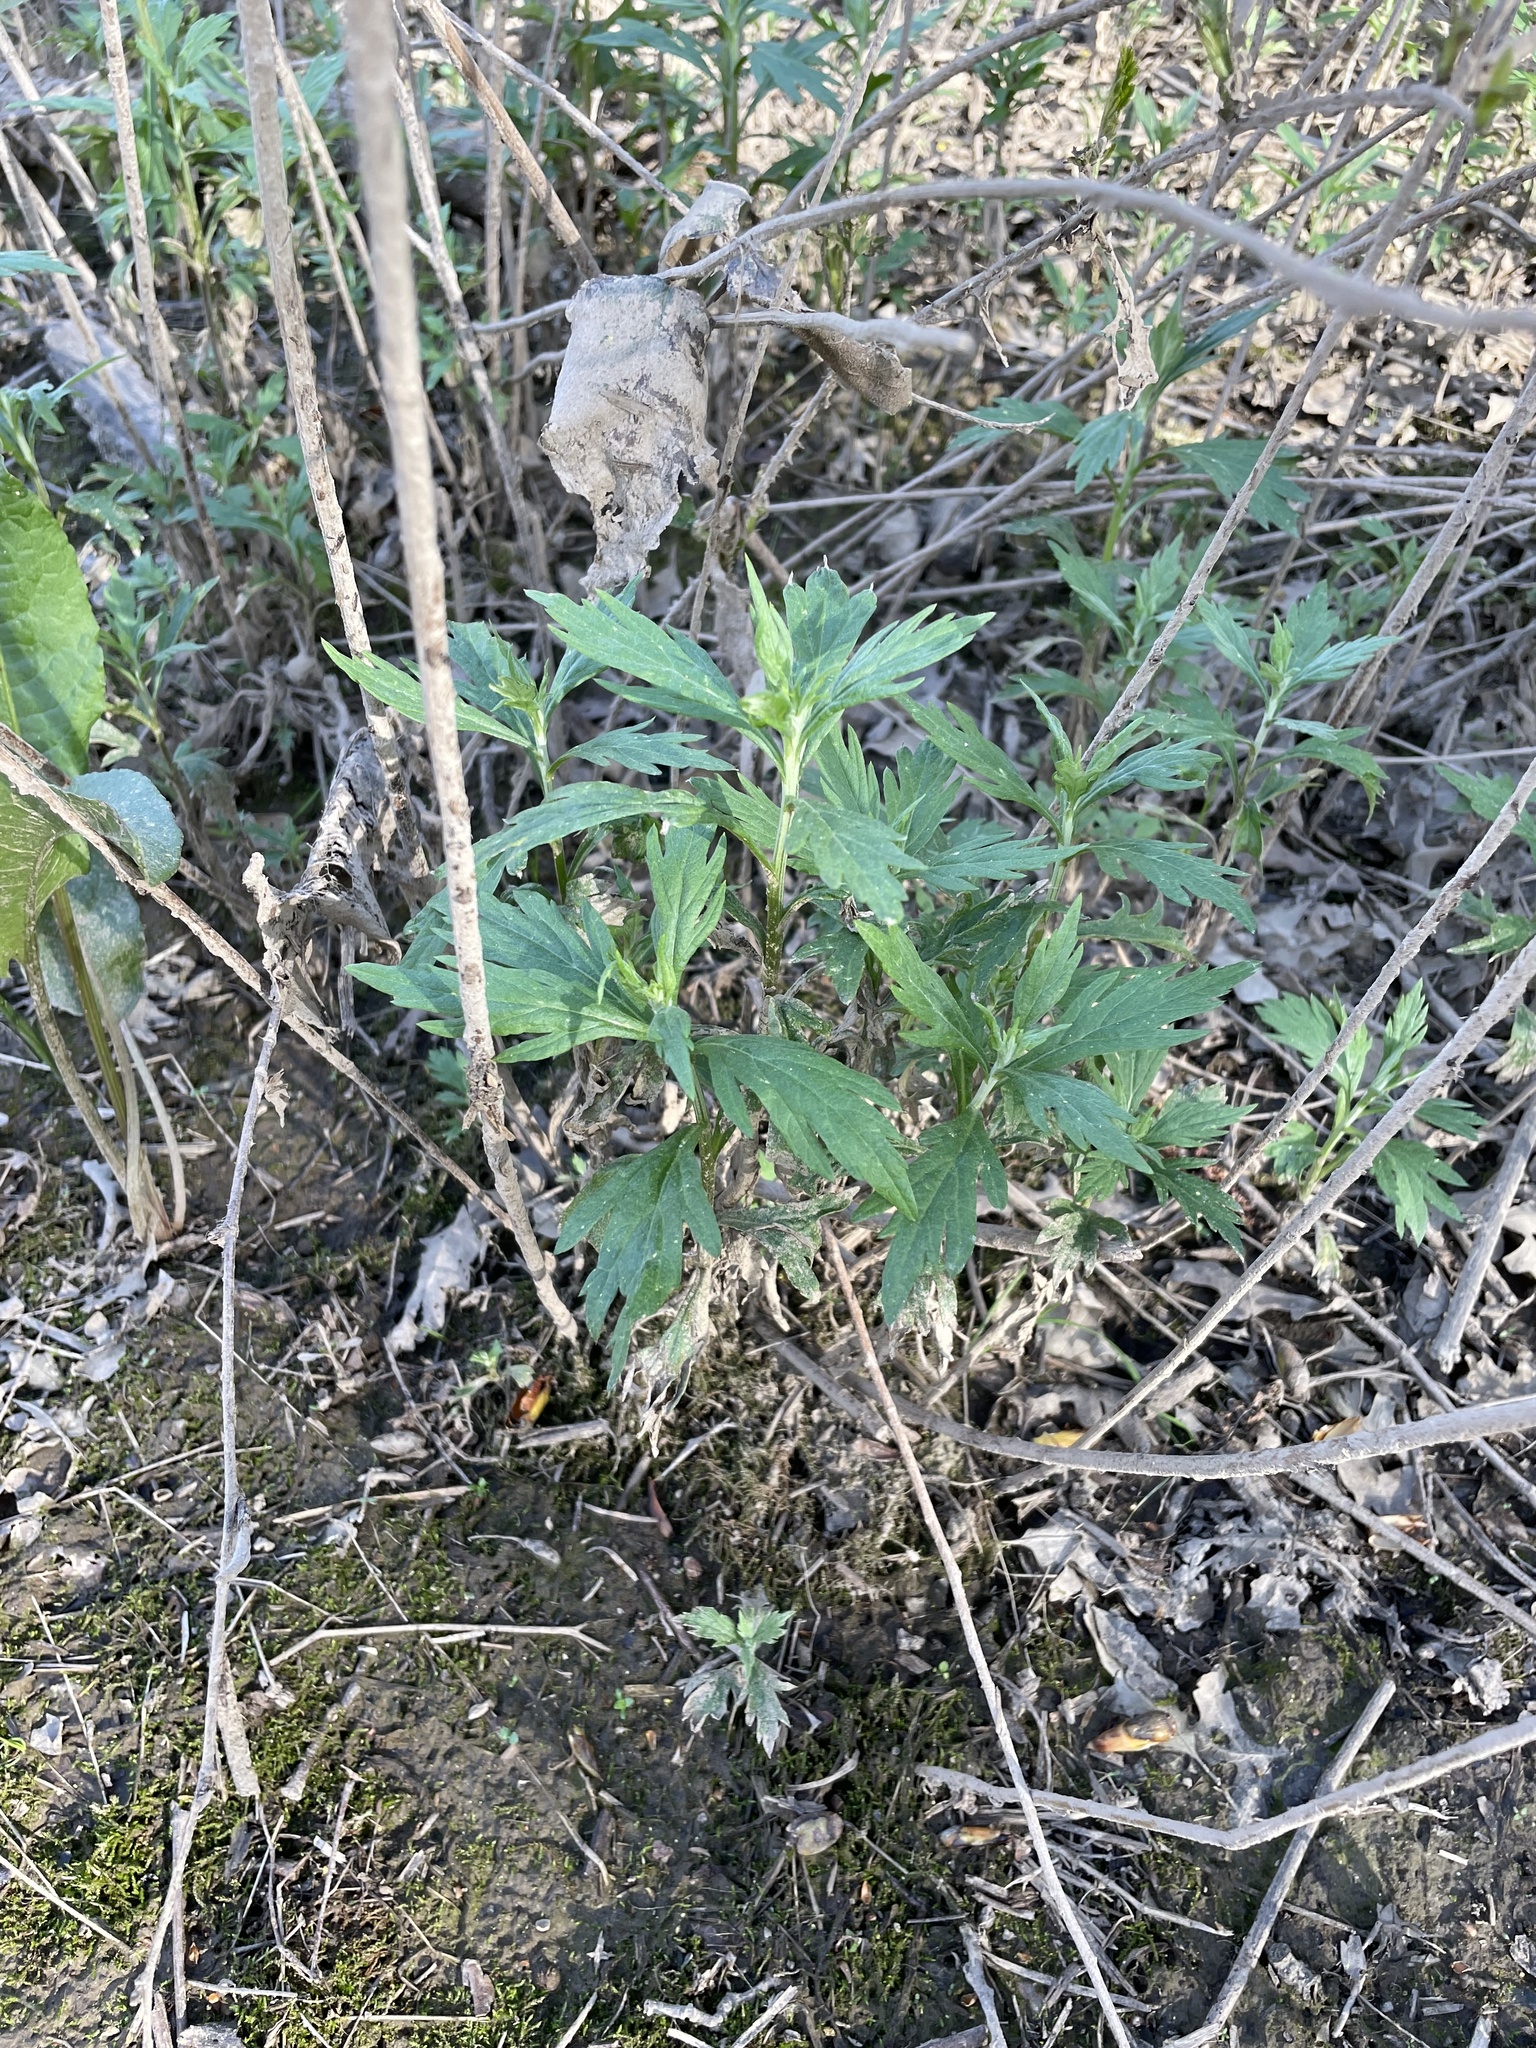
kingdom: Plantae
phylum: Tracheophyta
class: Magnoliopsida
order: Asterales
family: Asteraceae
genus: Artemisia
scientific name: Artemisia douglasiana
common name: Northwest mugwort
